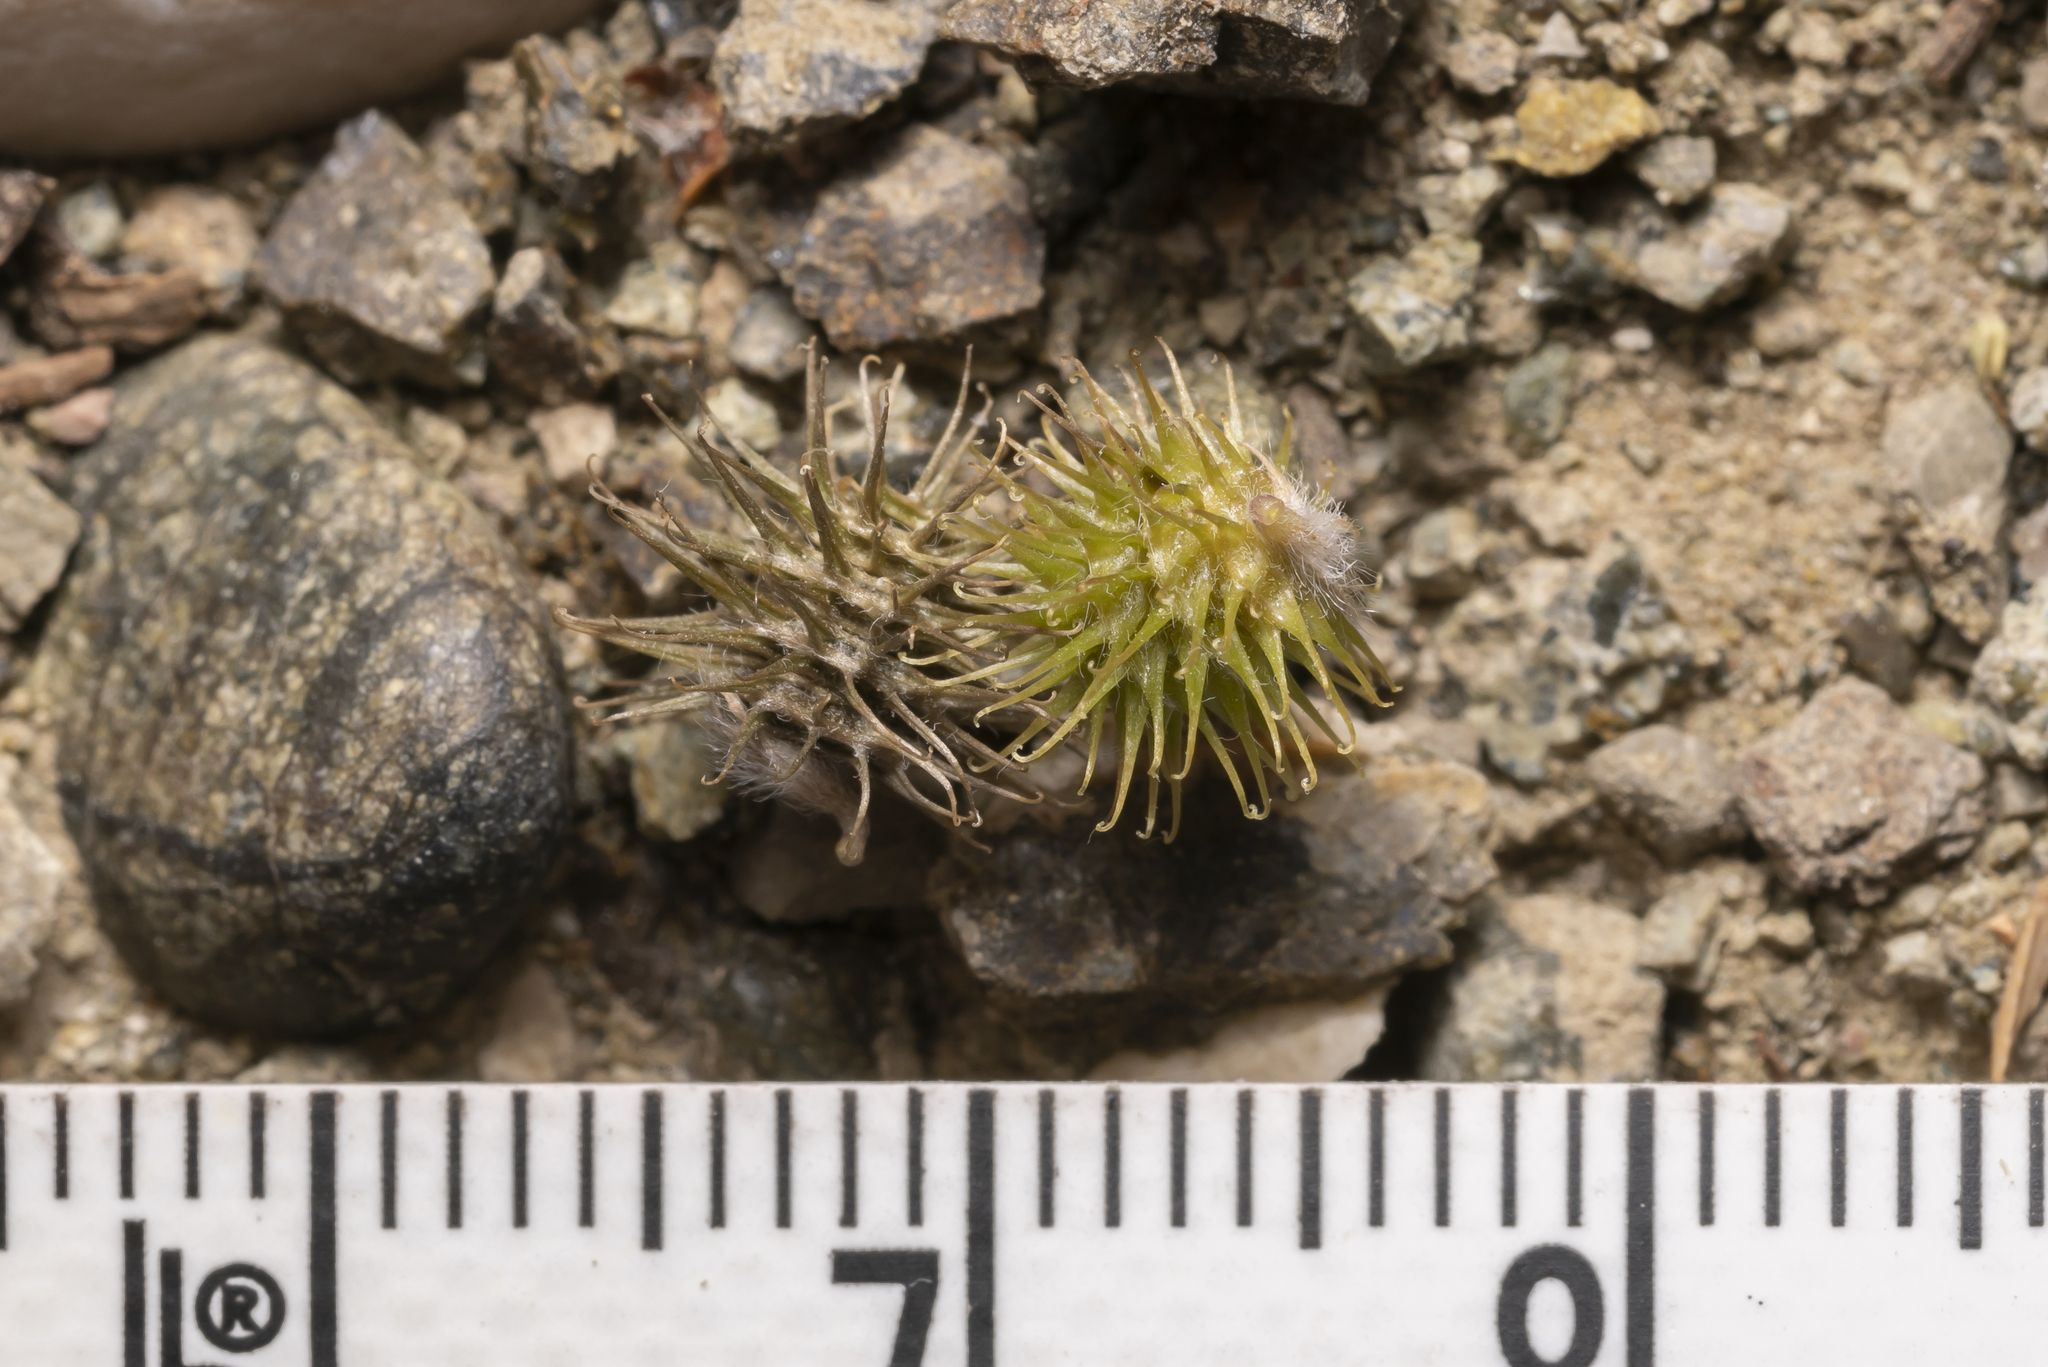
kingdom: Plantae
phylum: Tracheophyta
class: Magnoliopsida
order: Fabales
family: Fabaceae
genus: Medicago
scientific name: Medicago minima
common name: Little bur-clover
